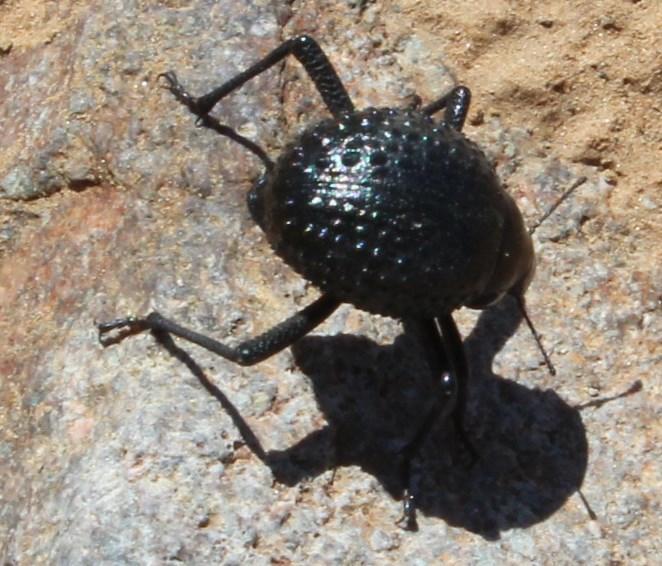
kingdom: Animalia
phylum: Arthropoda
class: Insecta
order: Coleoptera
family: Tenebrionidae
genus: Adesmia
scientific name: Adesmia
